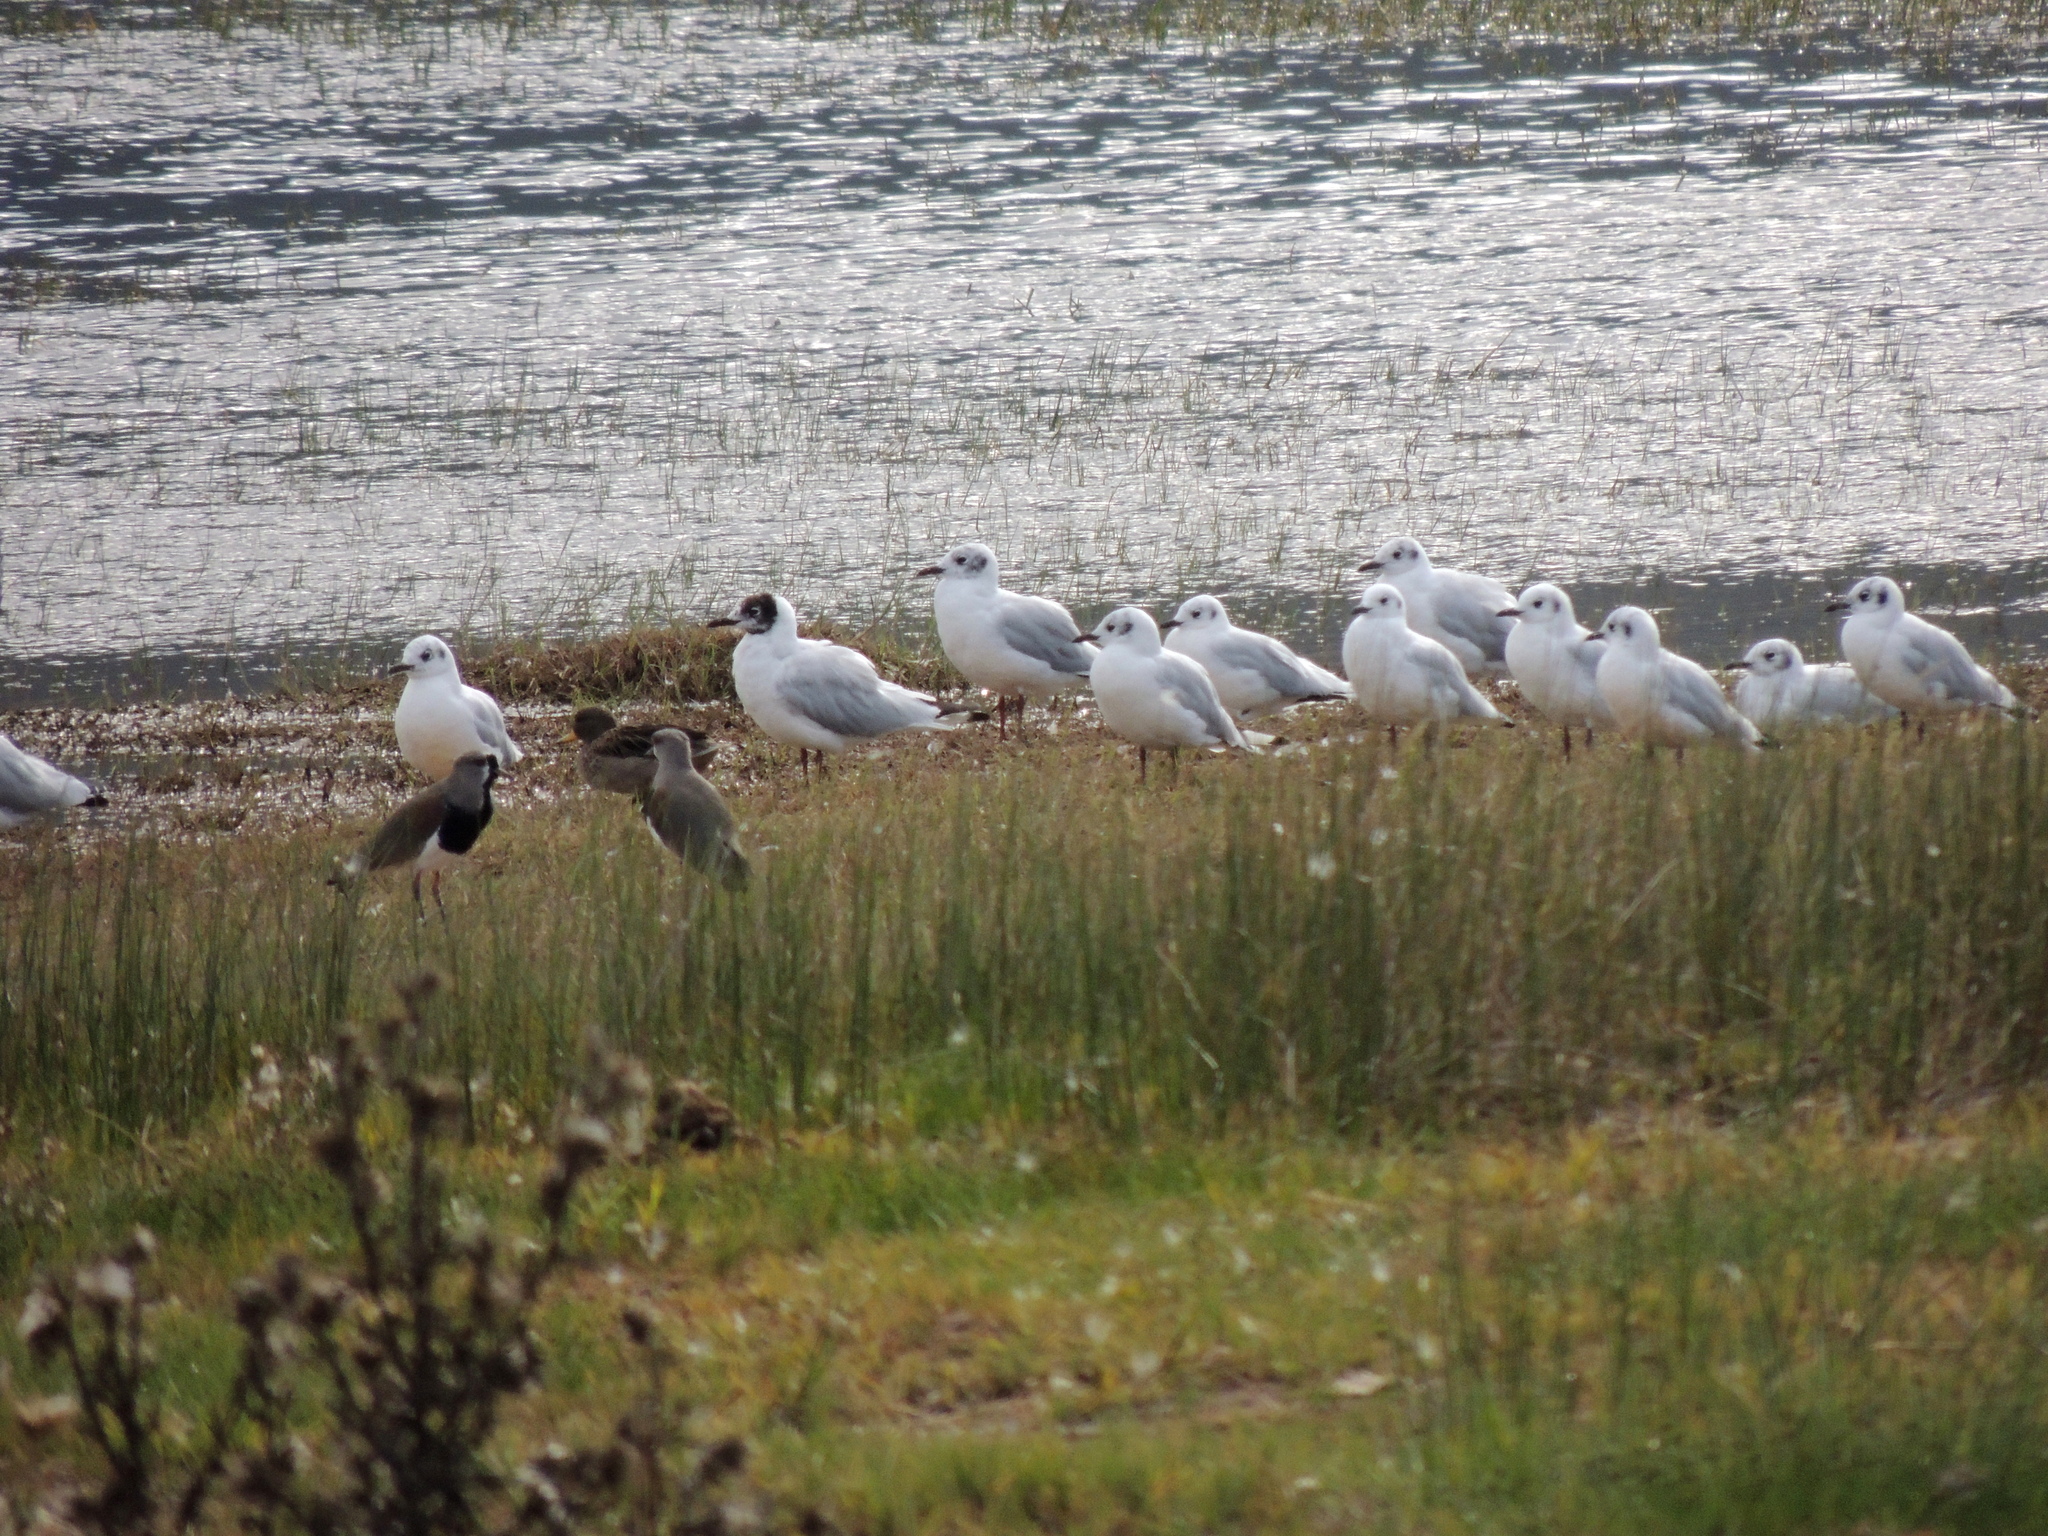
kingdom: Animalia
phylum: Chordata
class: Aves
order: Charadriiformes
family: Charadriidae
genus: Vanellus
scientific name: Vanellus chilensis
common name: Southern lapwing
